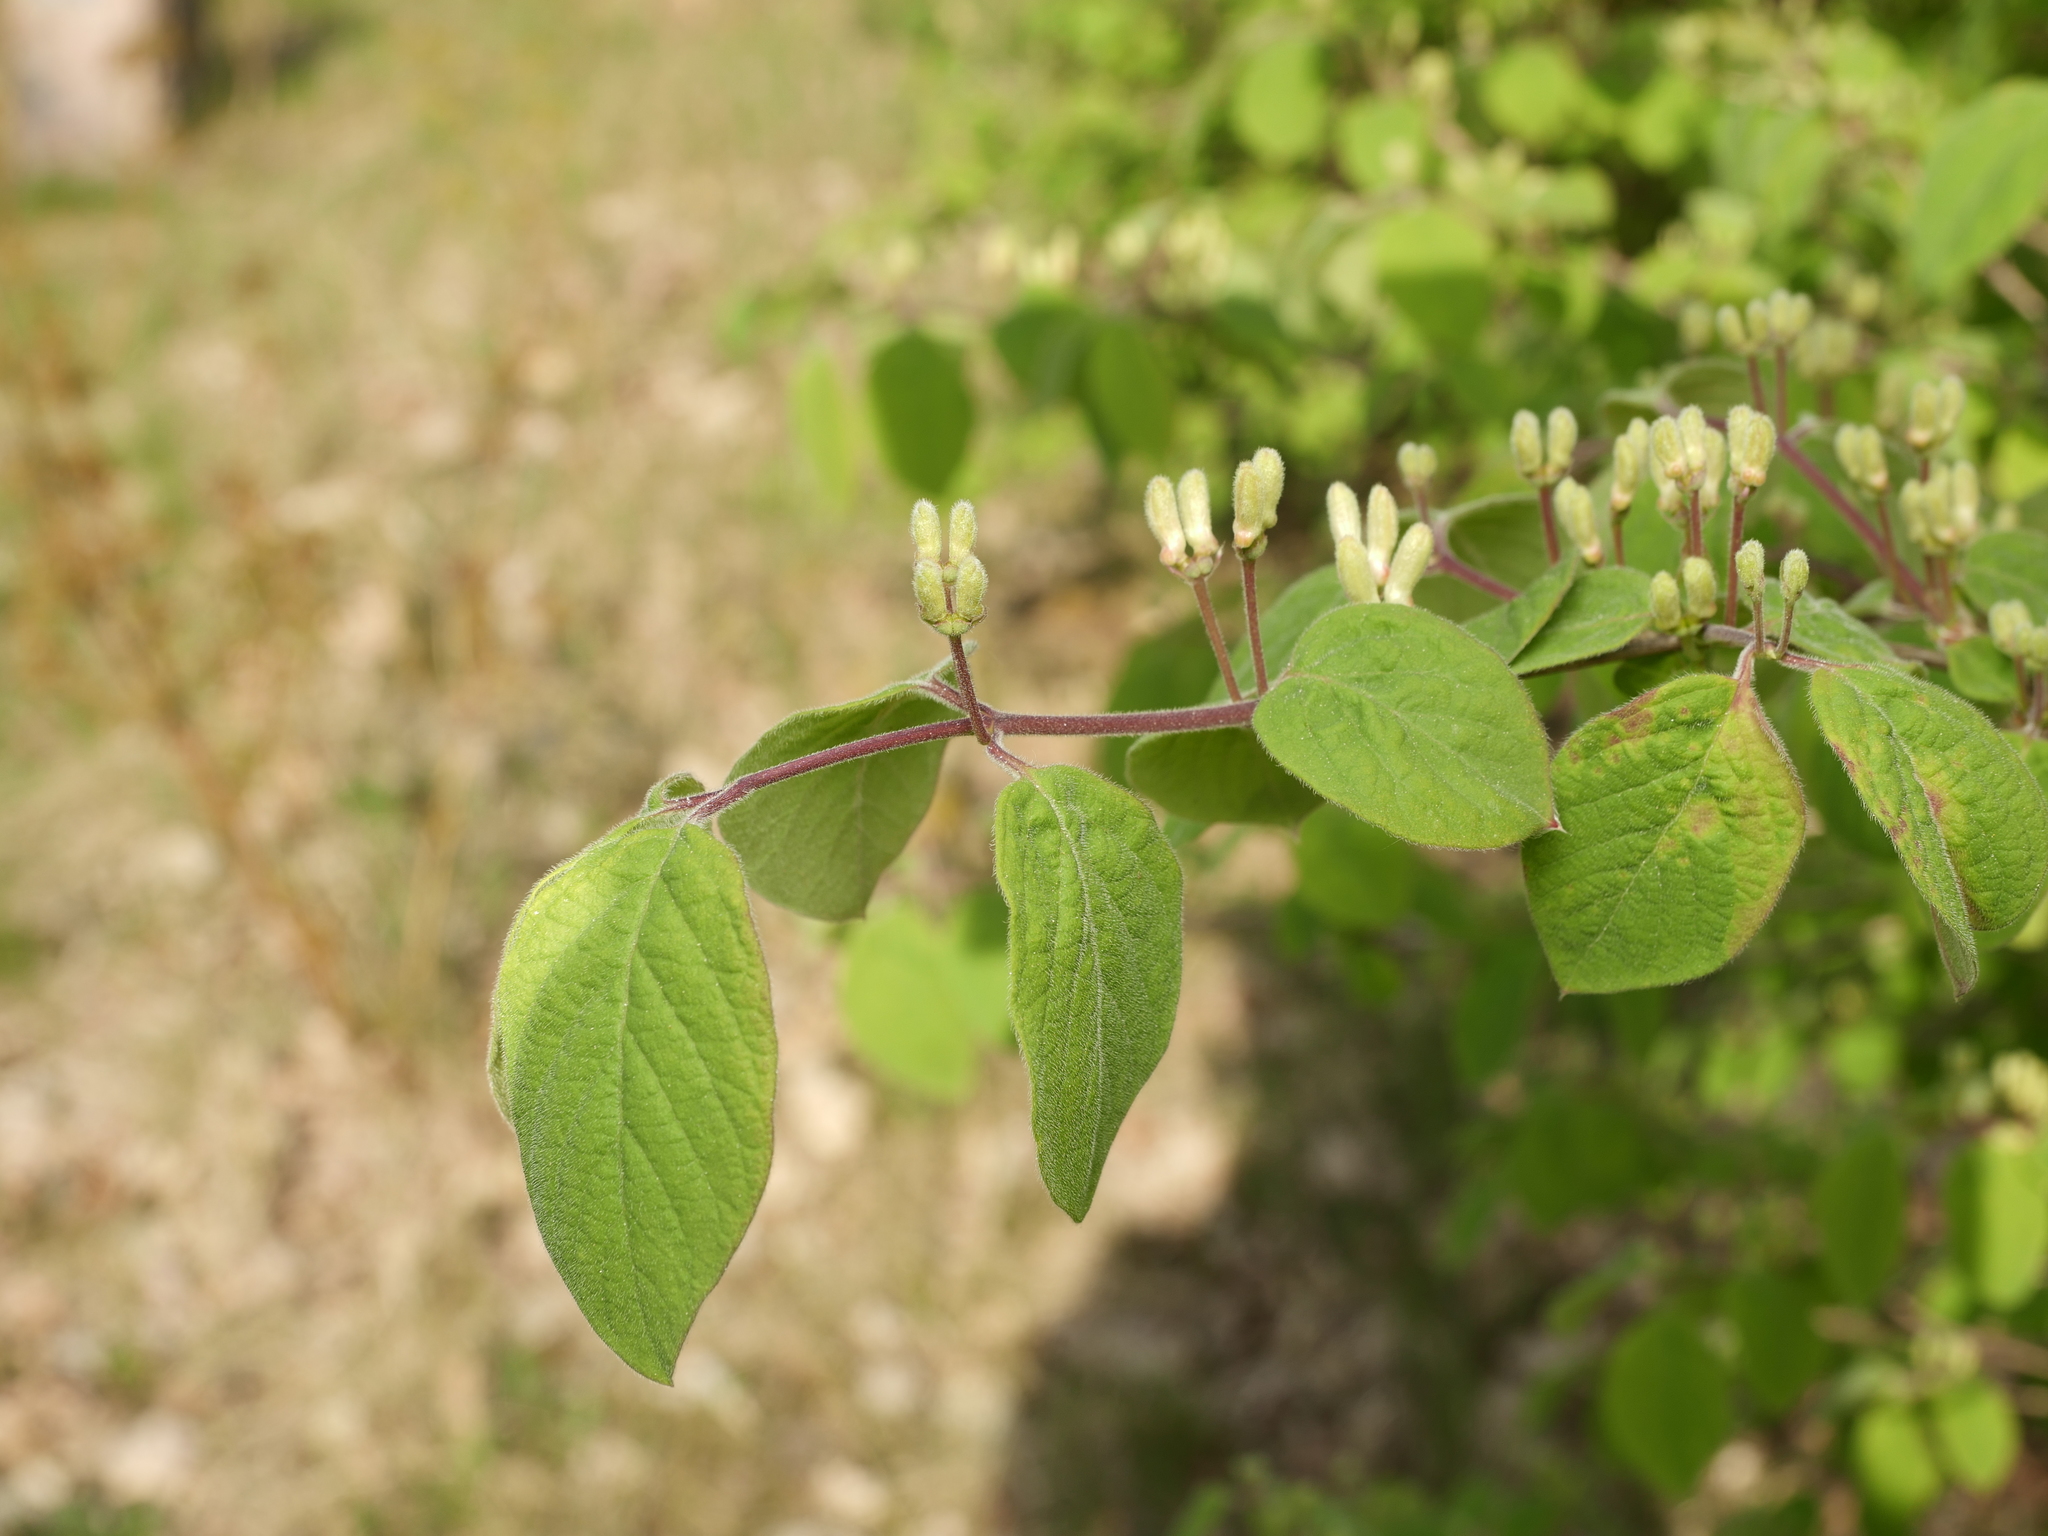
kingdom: Plantae
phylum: Tracheophyta
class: Magnoliopsida
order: Dipsacales
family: Caprifoliaceae
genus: Lonicera
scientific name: Lonicera xylosteum
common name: Fly honeysuckle
